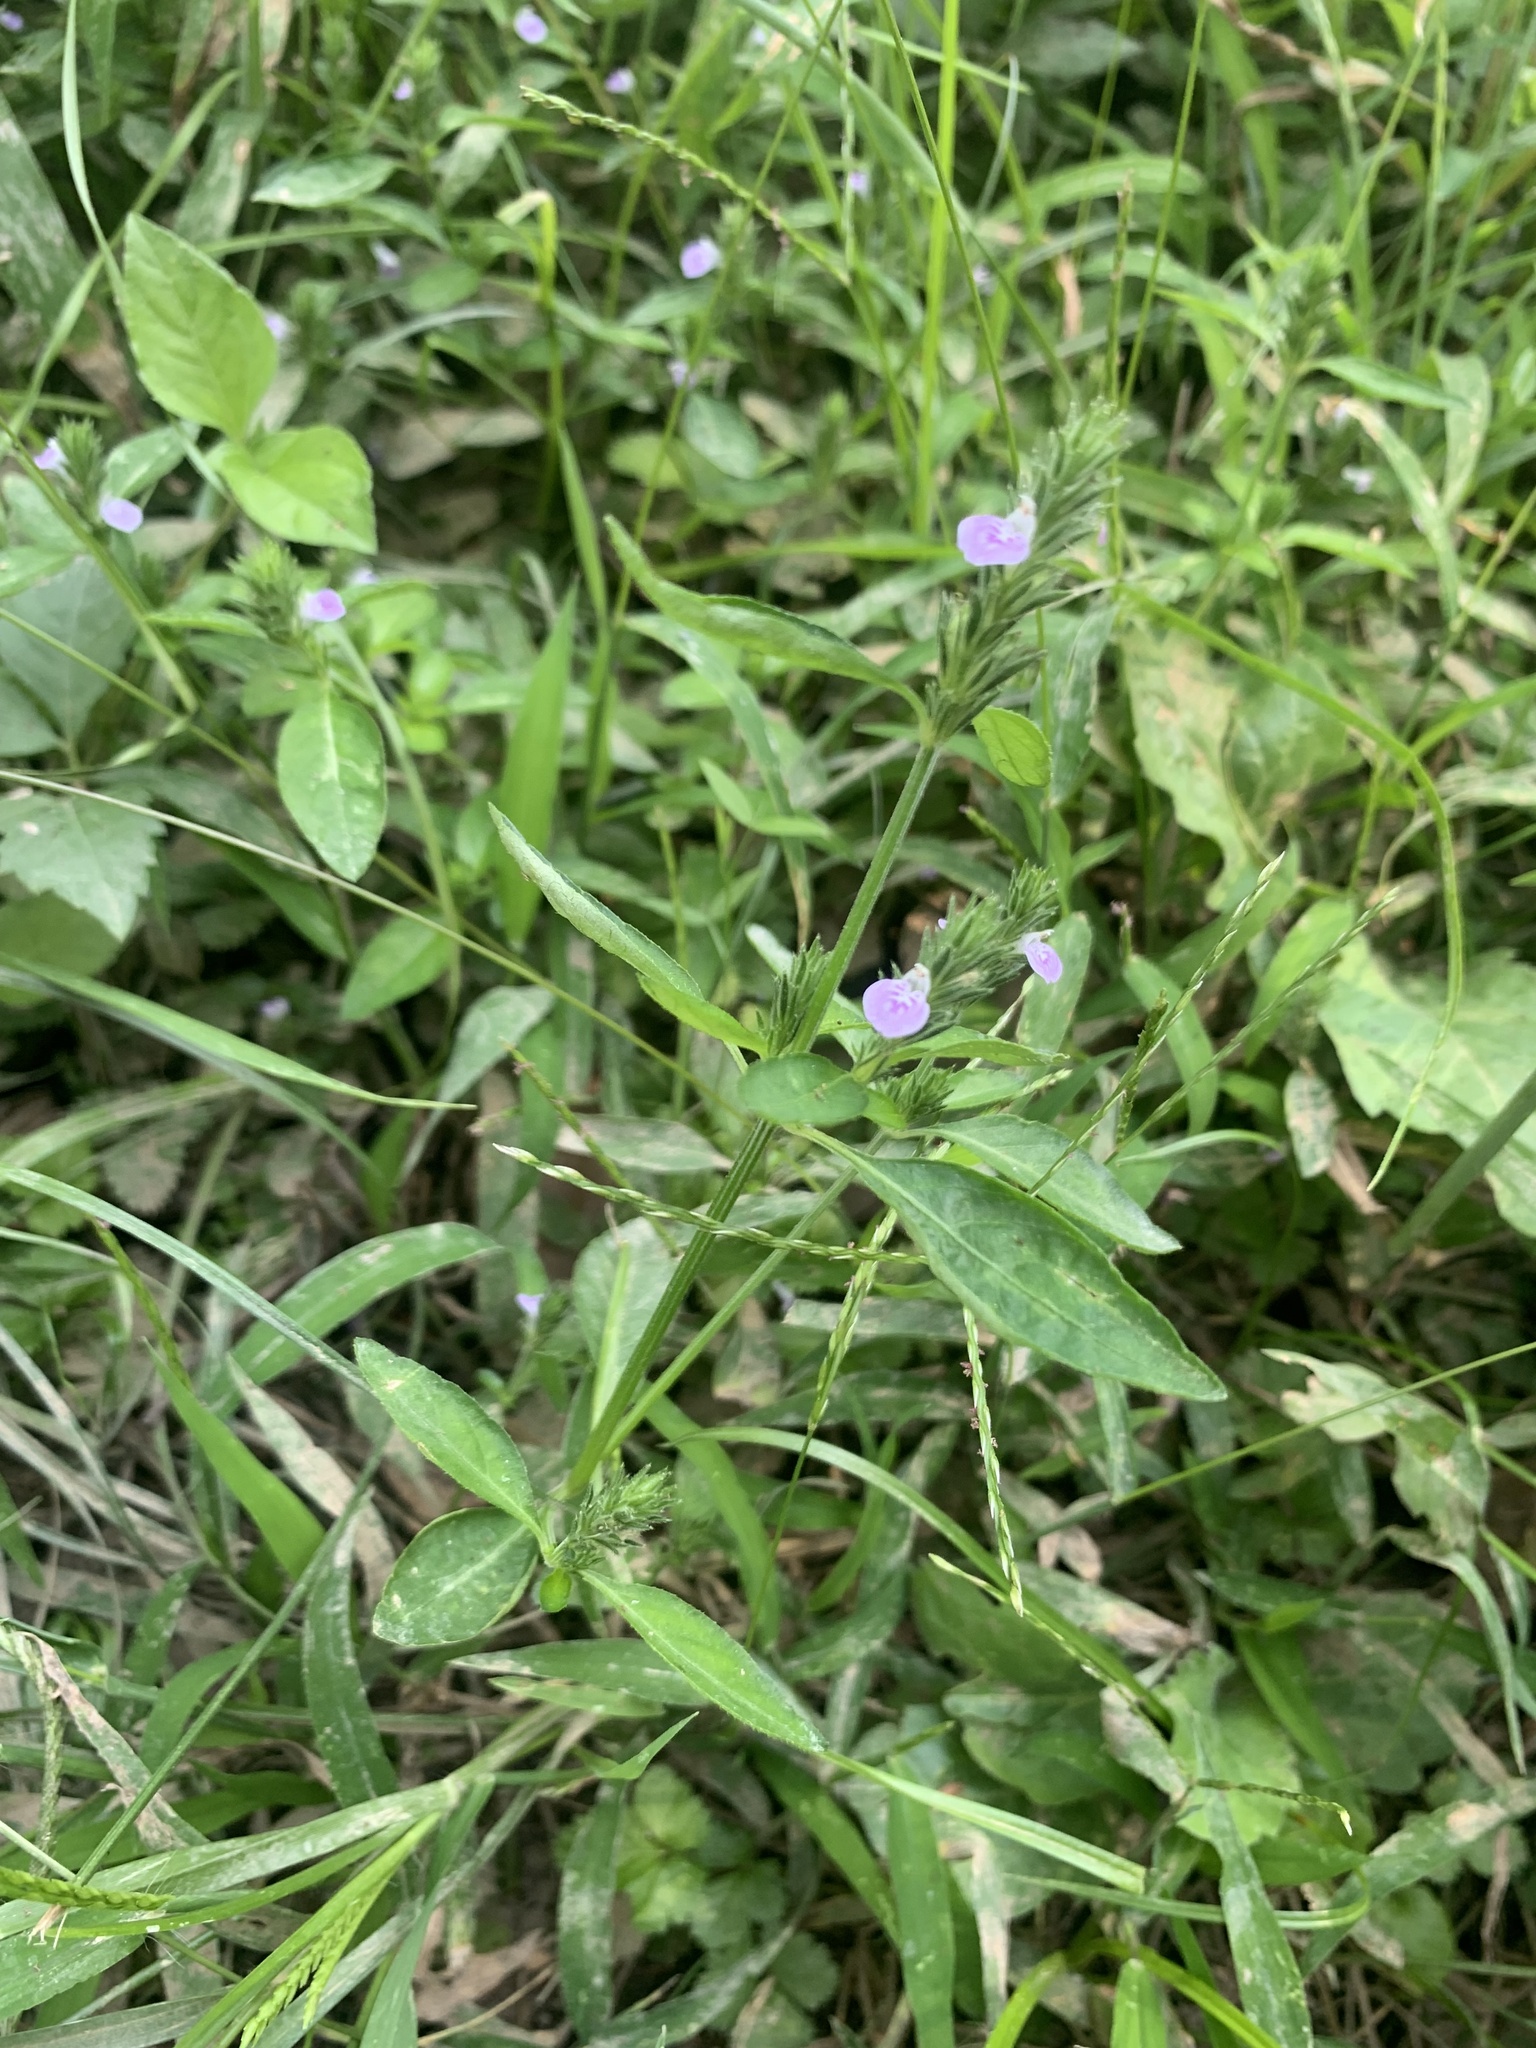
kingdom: Plantae
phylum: Tracheophyta
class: Magnoliopsida
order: Lamiales
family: Acanthaceae
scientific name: Acanthaceae
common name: Acanthaceae
